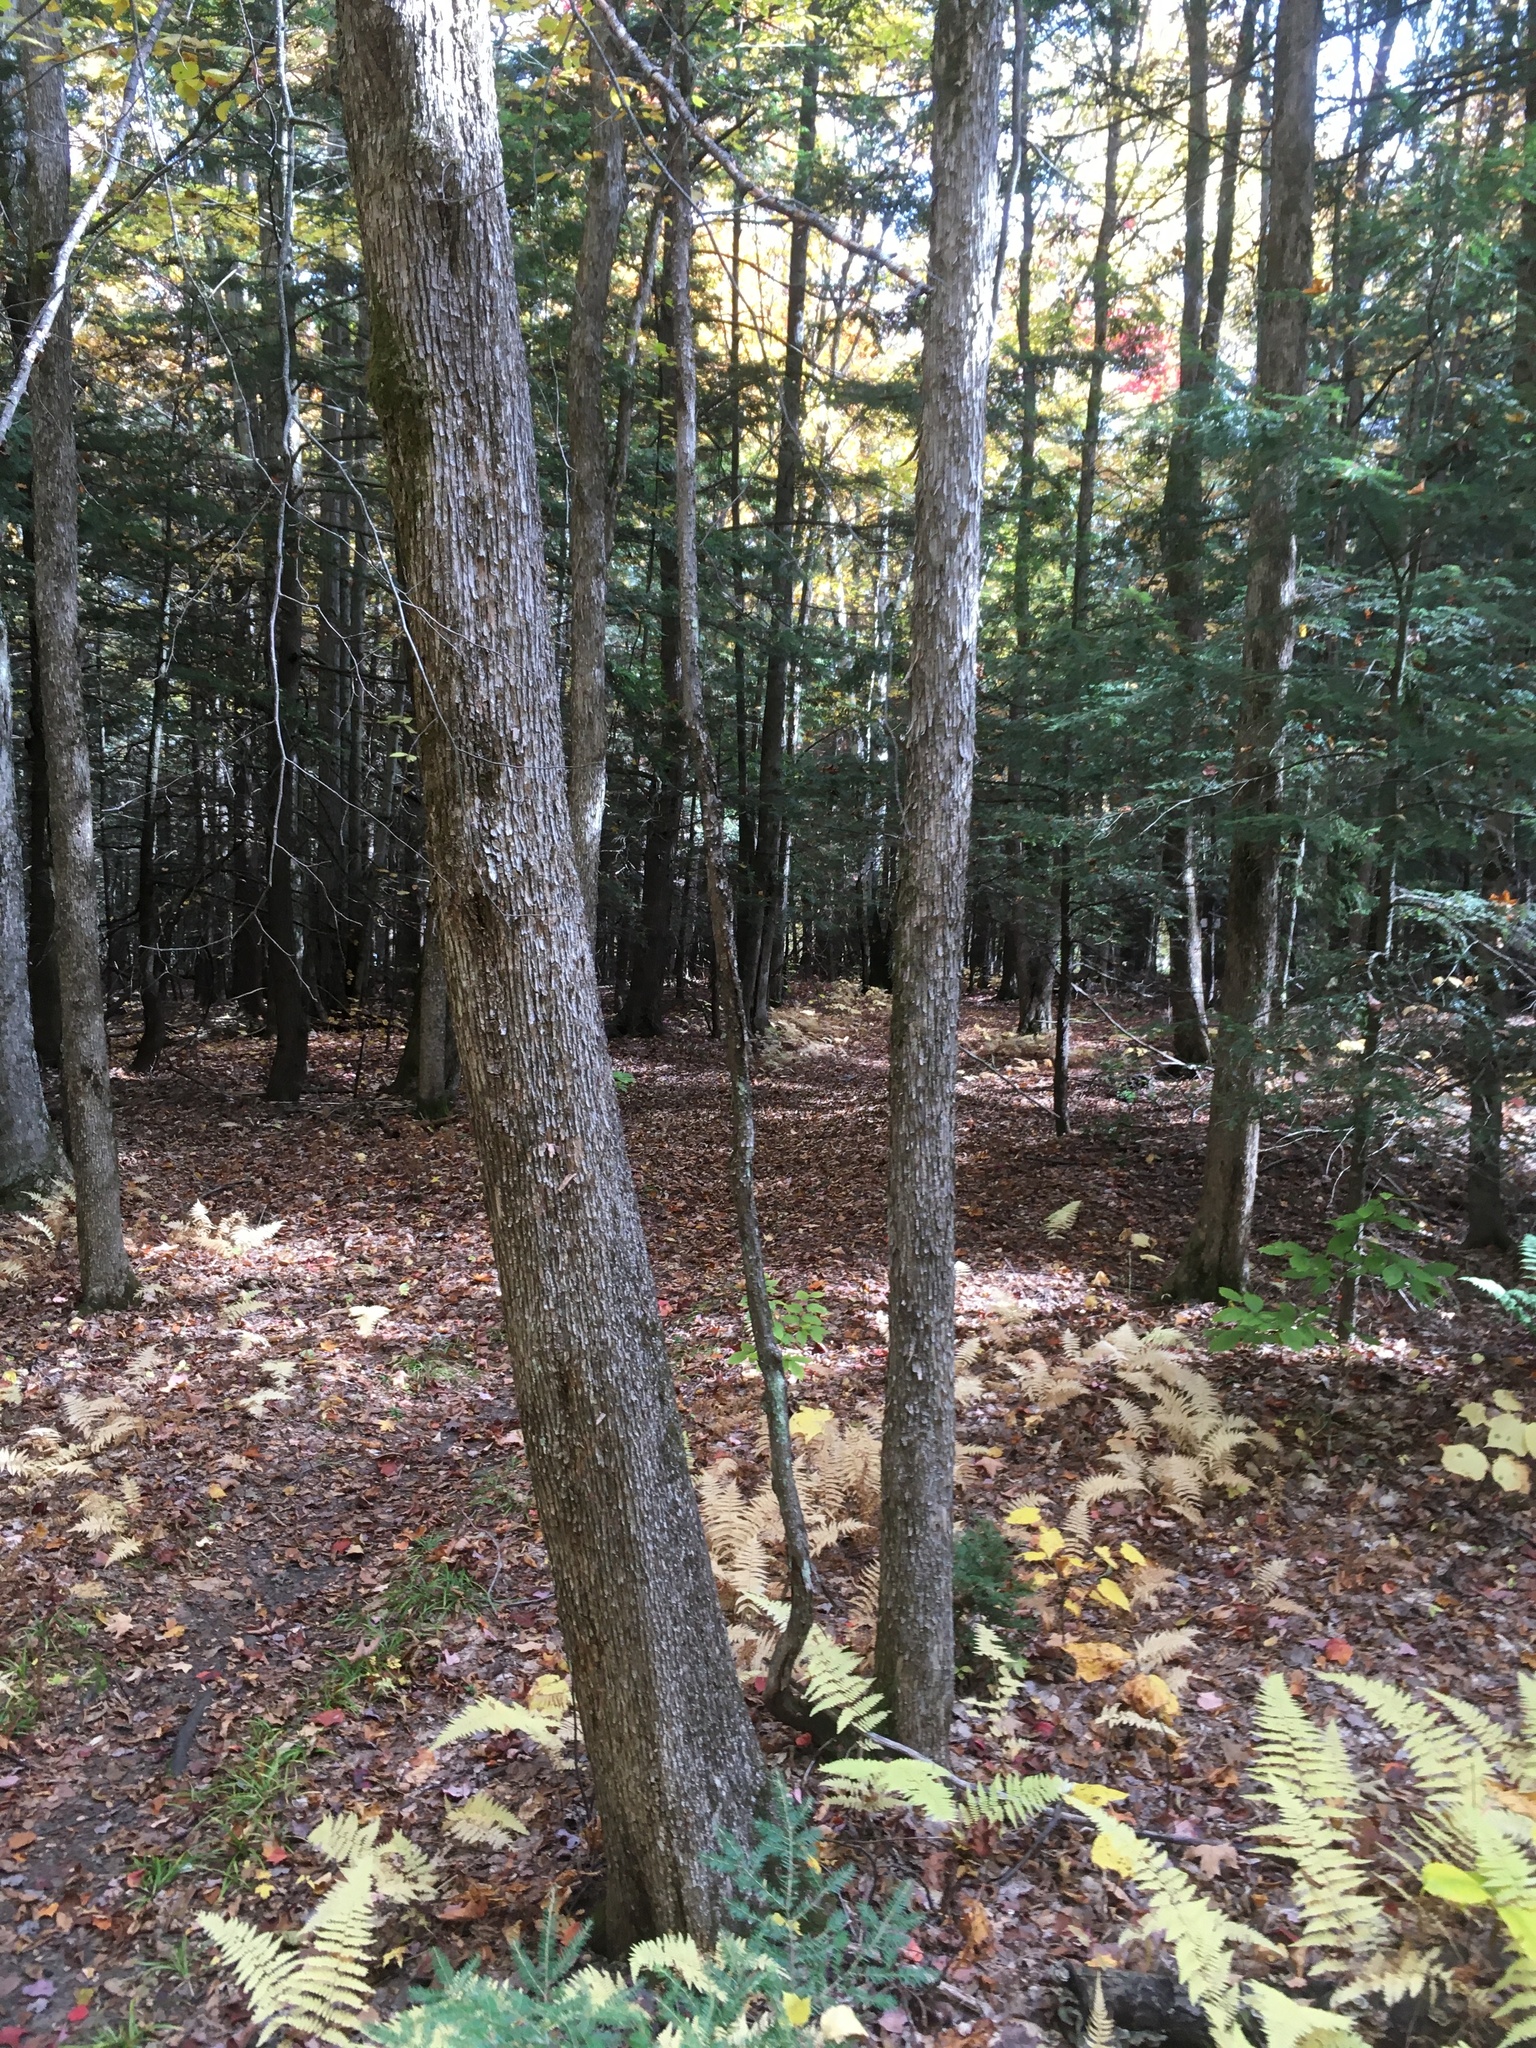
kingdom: Plantae
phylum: Tracheophyta
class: Magnoliopsida
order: Fagales
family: Betulaceae
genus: Ostrya
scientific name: Ostrya virginiana
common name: Ironwood
